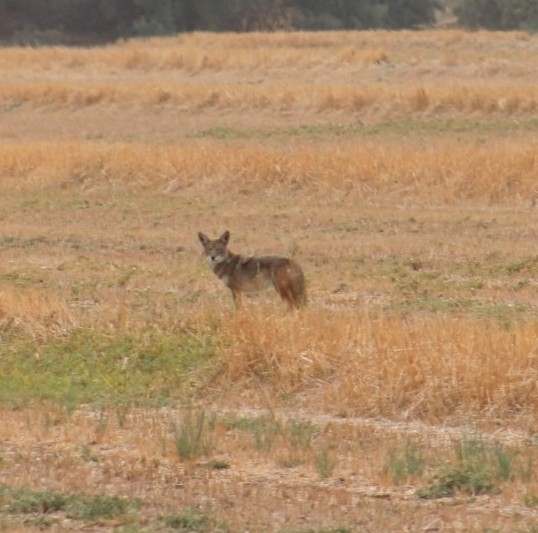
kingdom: Animalia
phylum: Chordata
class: Mammalia
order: Carnivora
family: Canidae
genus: Canis
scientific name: Canis latrans
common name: Coyote
